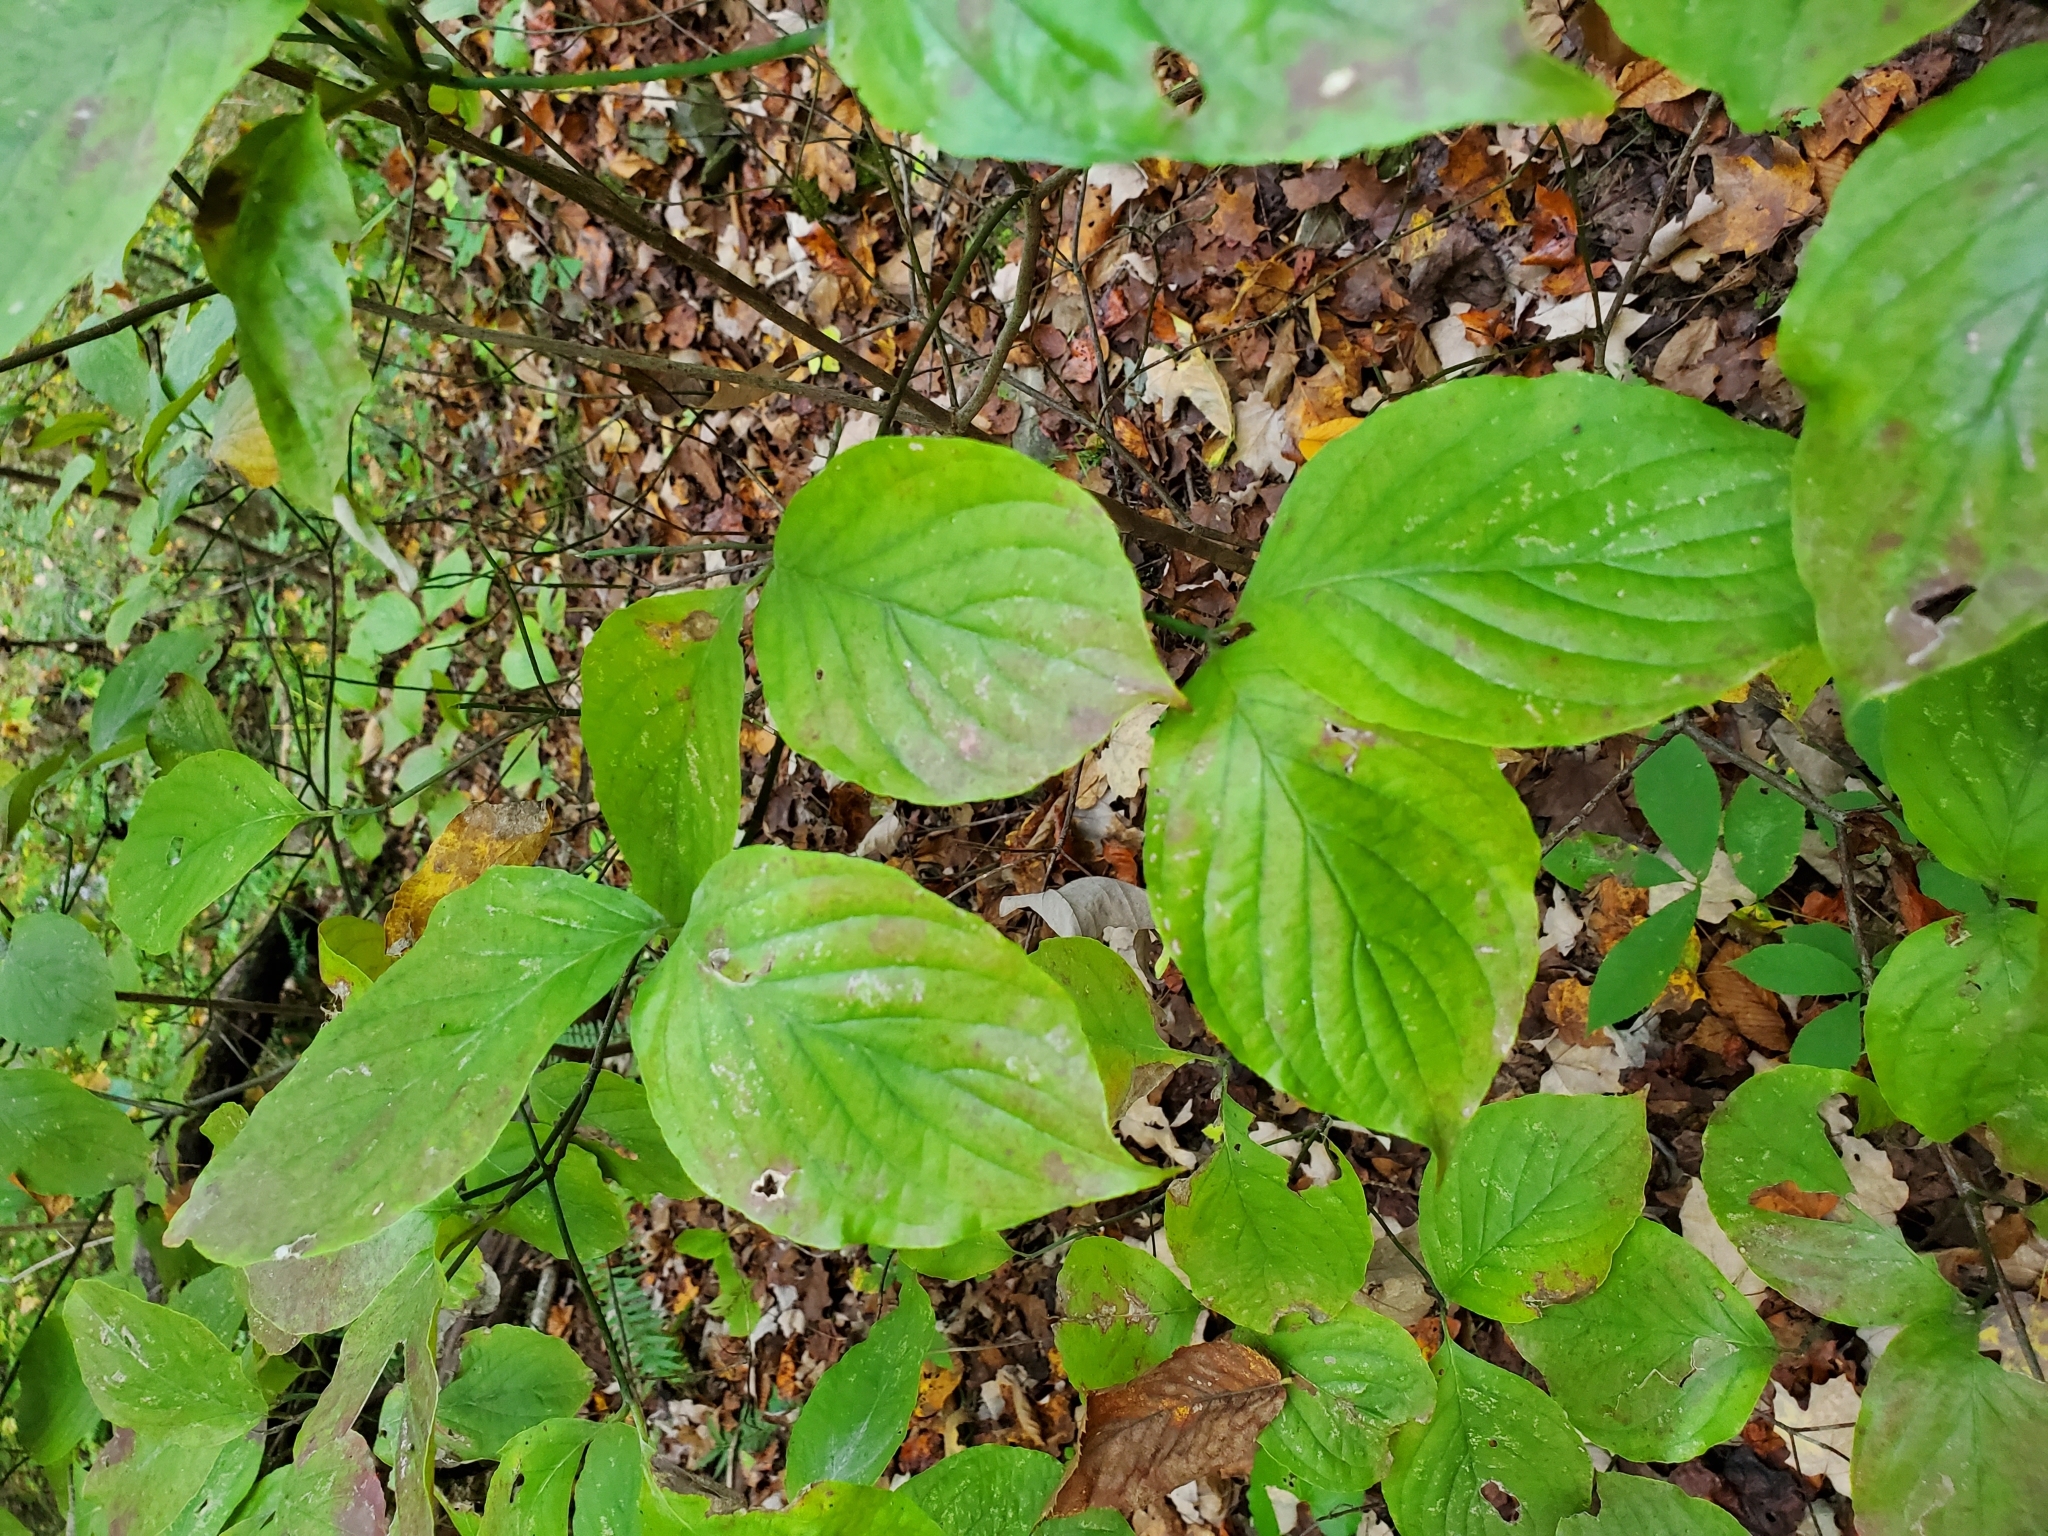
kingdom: Plantae
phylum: Tracheophyta
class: Magnoliopsida
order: Cornales
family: Cornaceae
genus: Cornus
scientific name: Cornus florida
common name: Flowering dogwood
